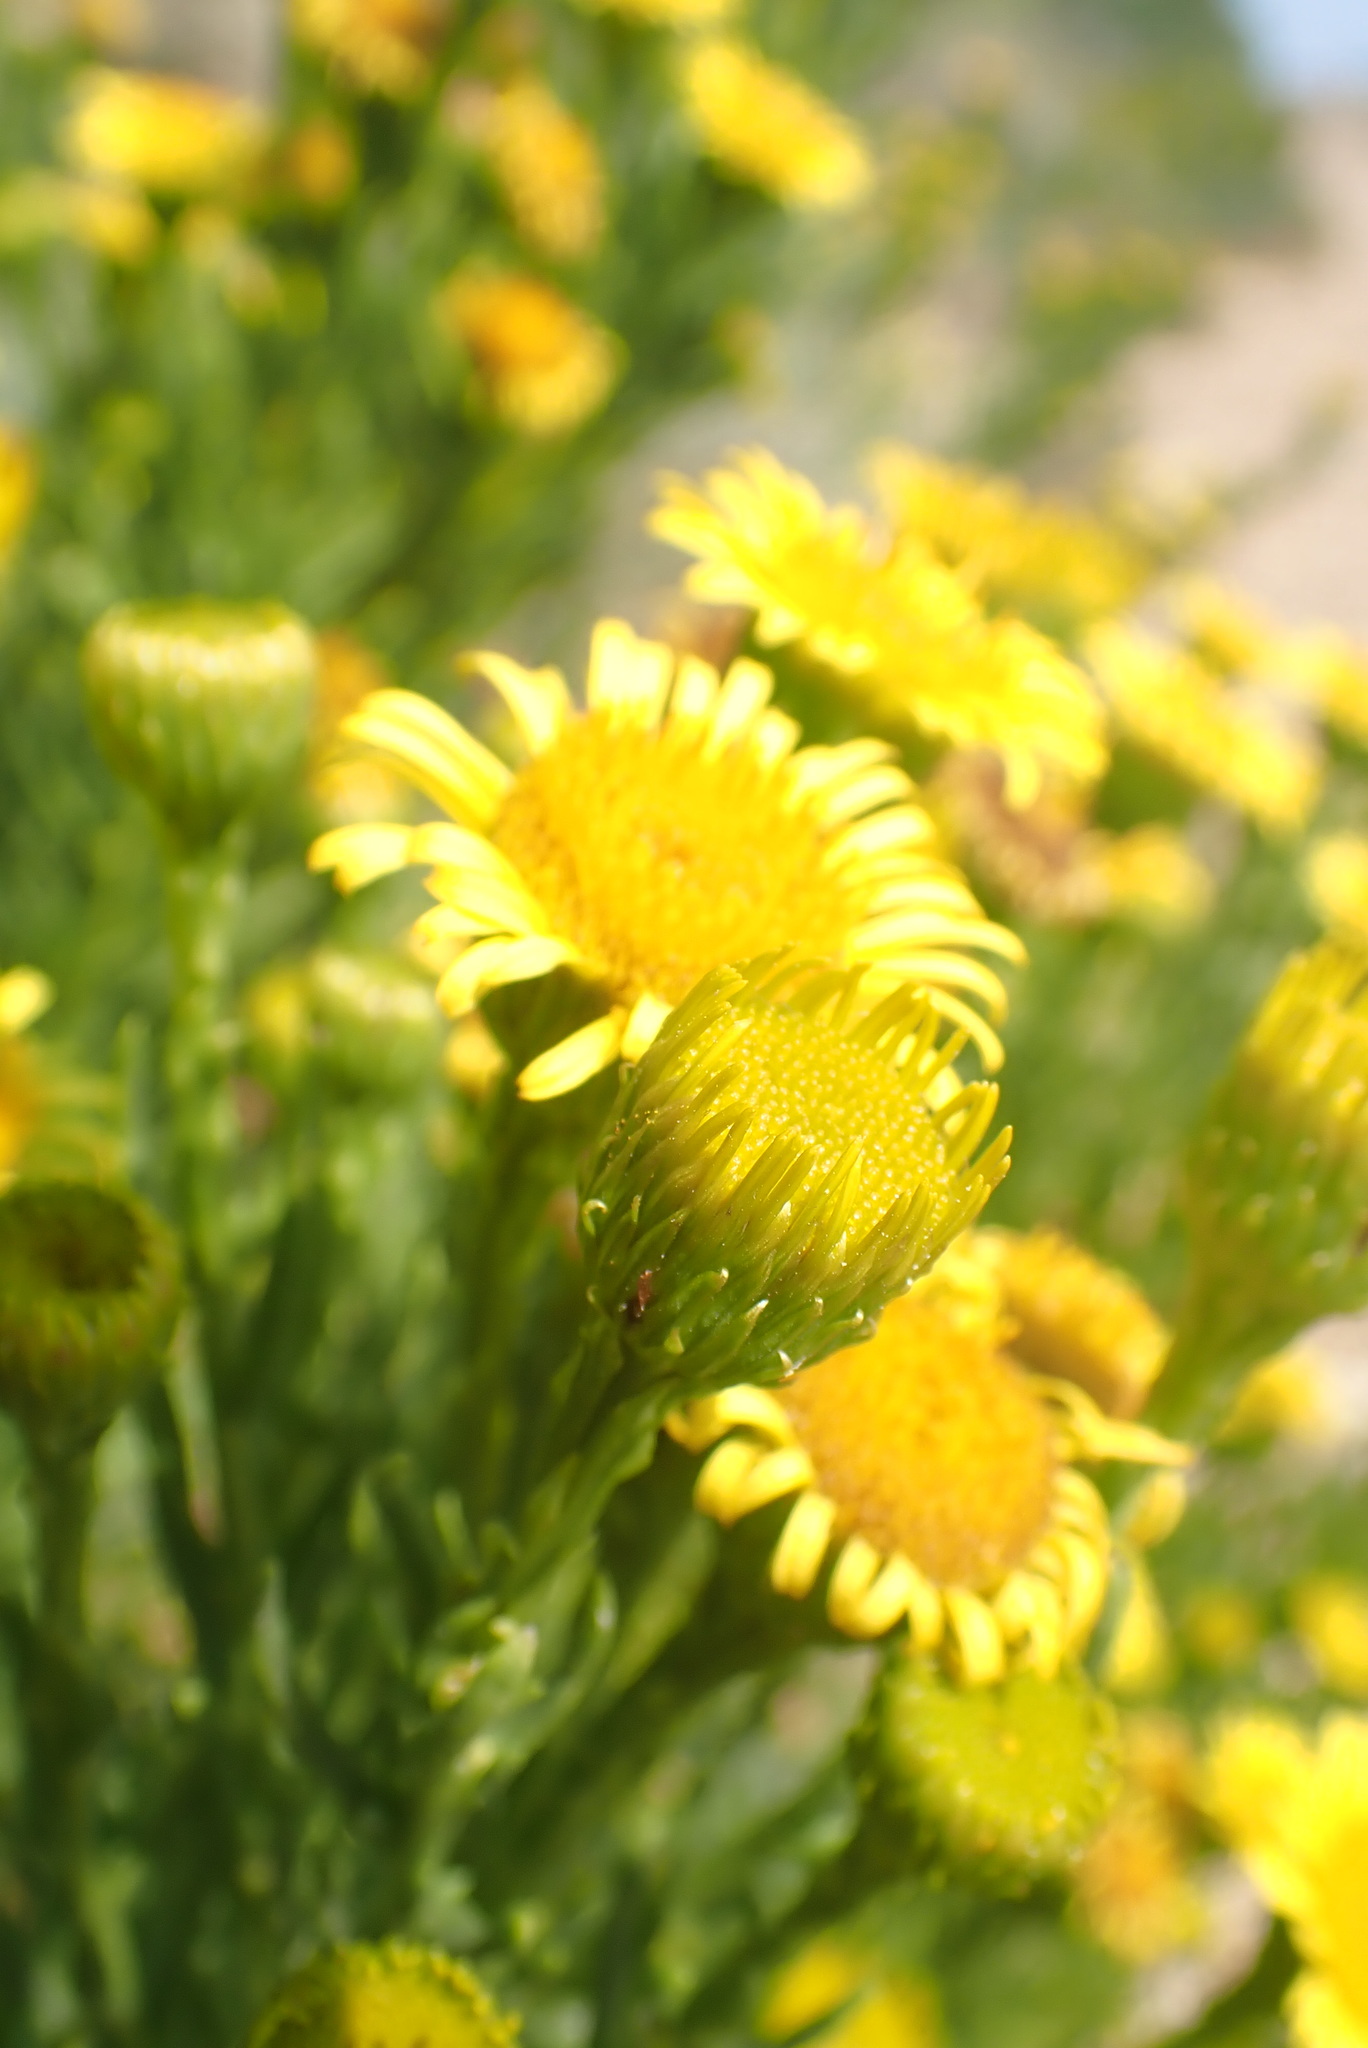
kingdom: Plantae
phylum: Tracheophyta
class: Magnoliopsida
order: Asterales
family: Asteraceae
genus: Limbarda
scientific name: Limbarda crithmoides
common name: Golden samphire
